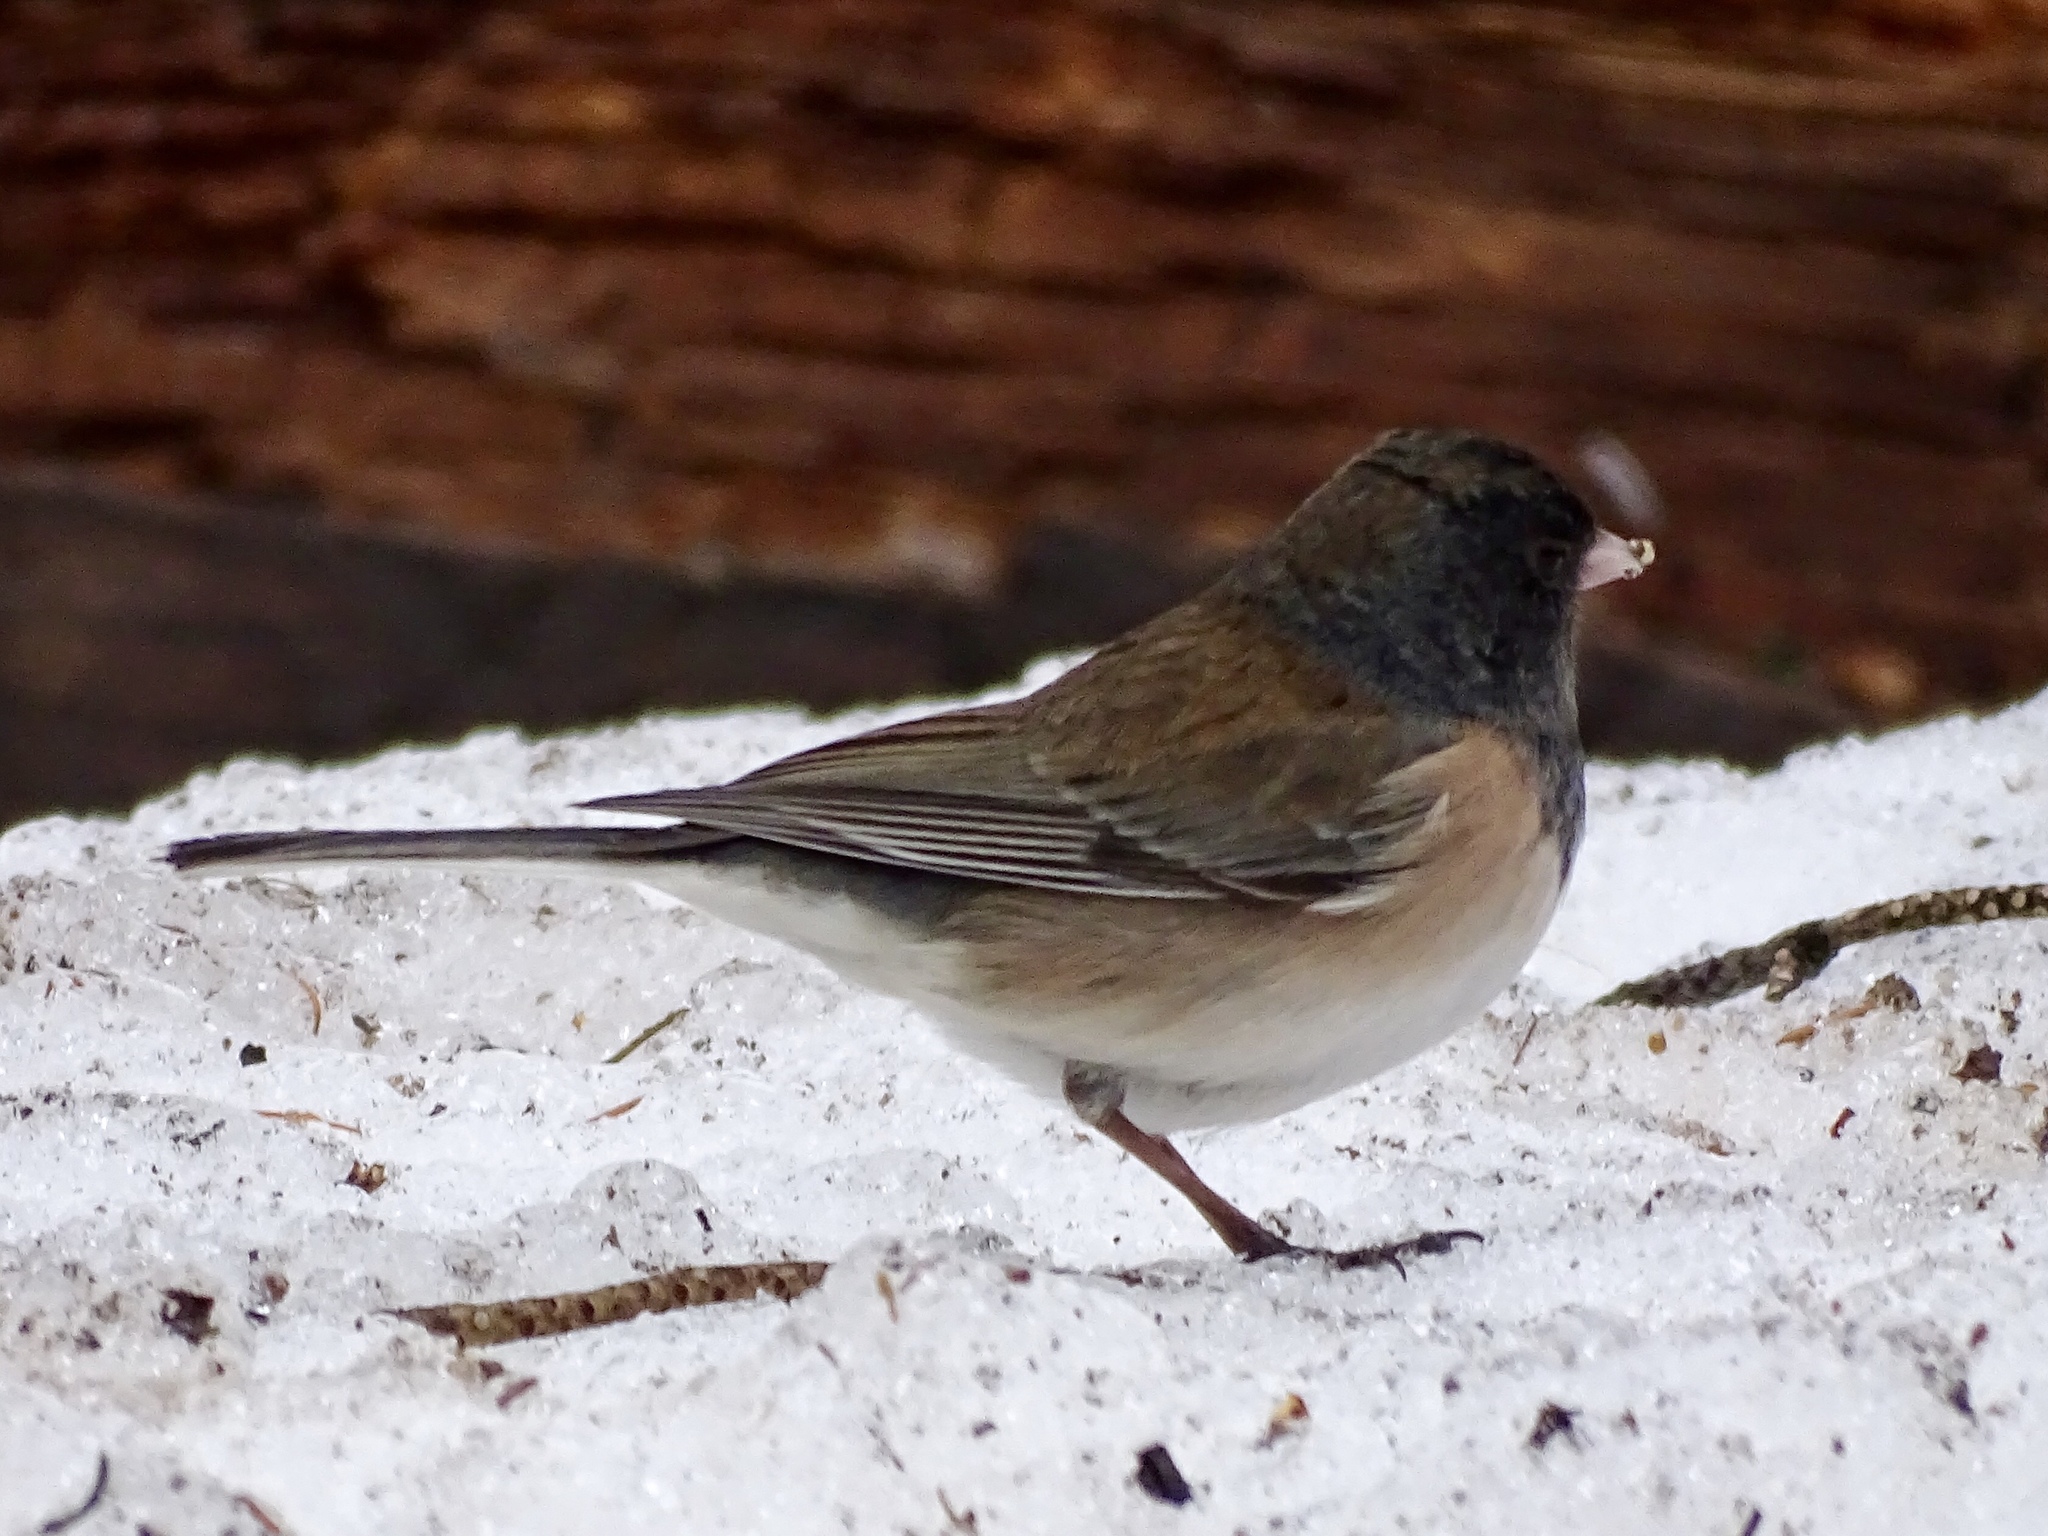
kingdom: Animalia
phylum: Chordata
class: Aves
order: Passeriformes
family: Passerellidae
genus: Junco
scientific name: Junco hyemalis
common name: Dark-eyed junco
